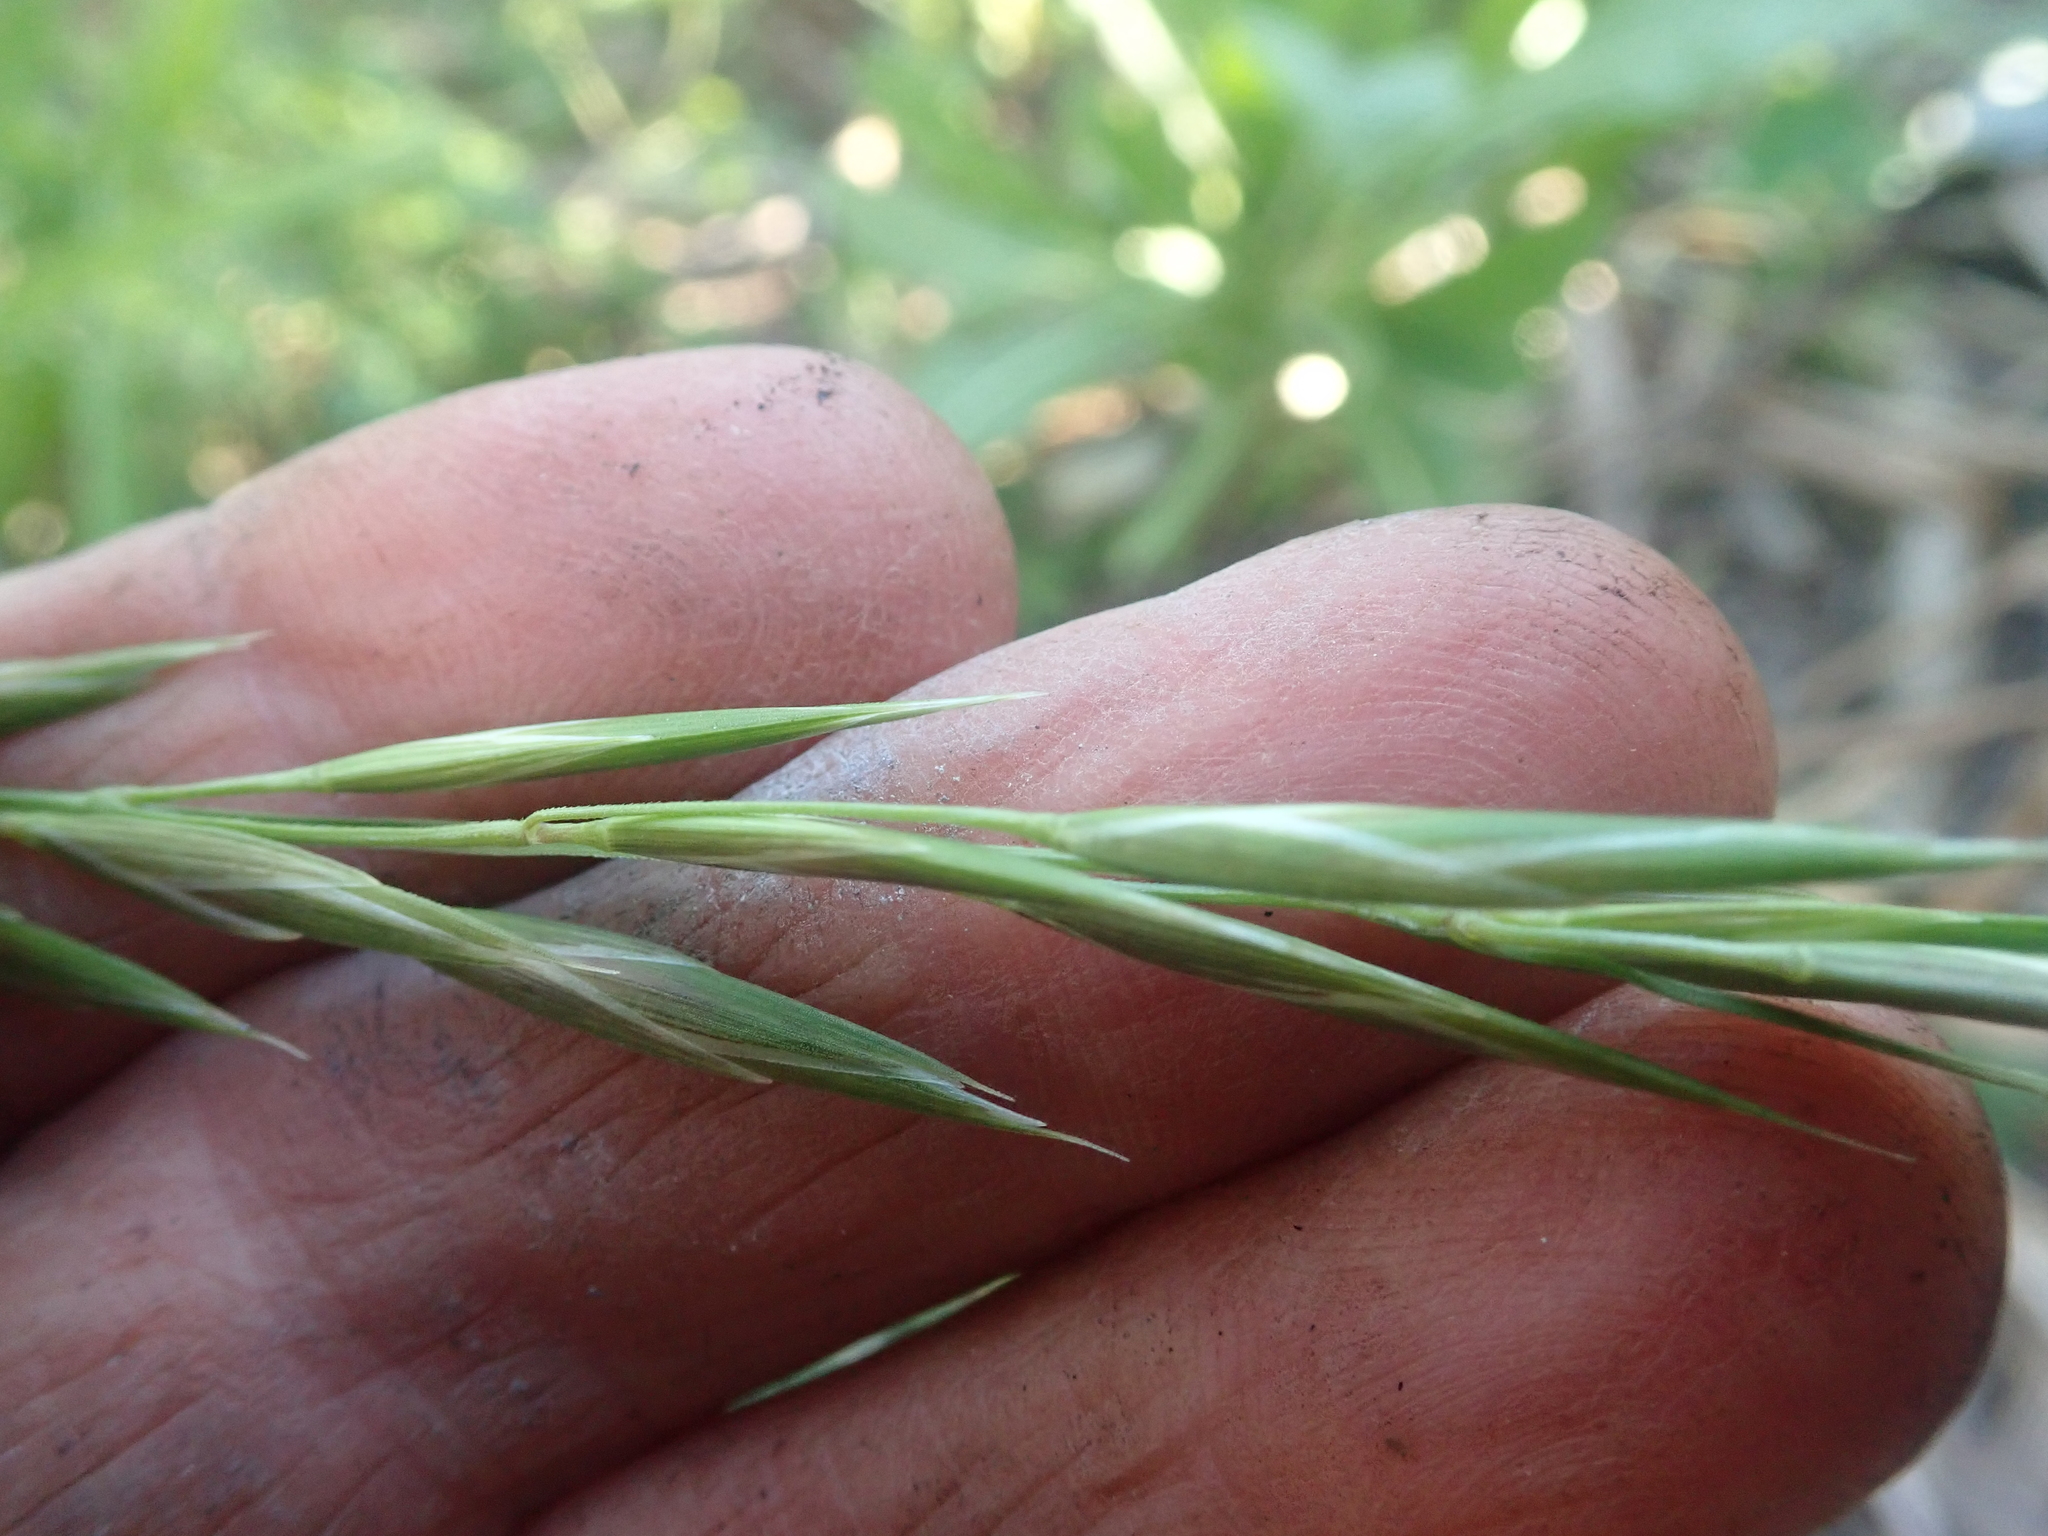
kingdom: Plantae
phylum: Tracheophyta
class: Liliopsida
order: Poales
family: Poaceae
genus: Bromus
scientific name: Bromus catharticus
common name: Rescuegrass
